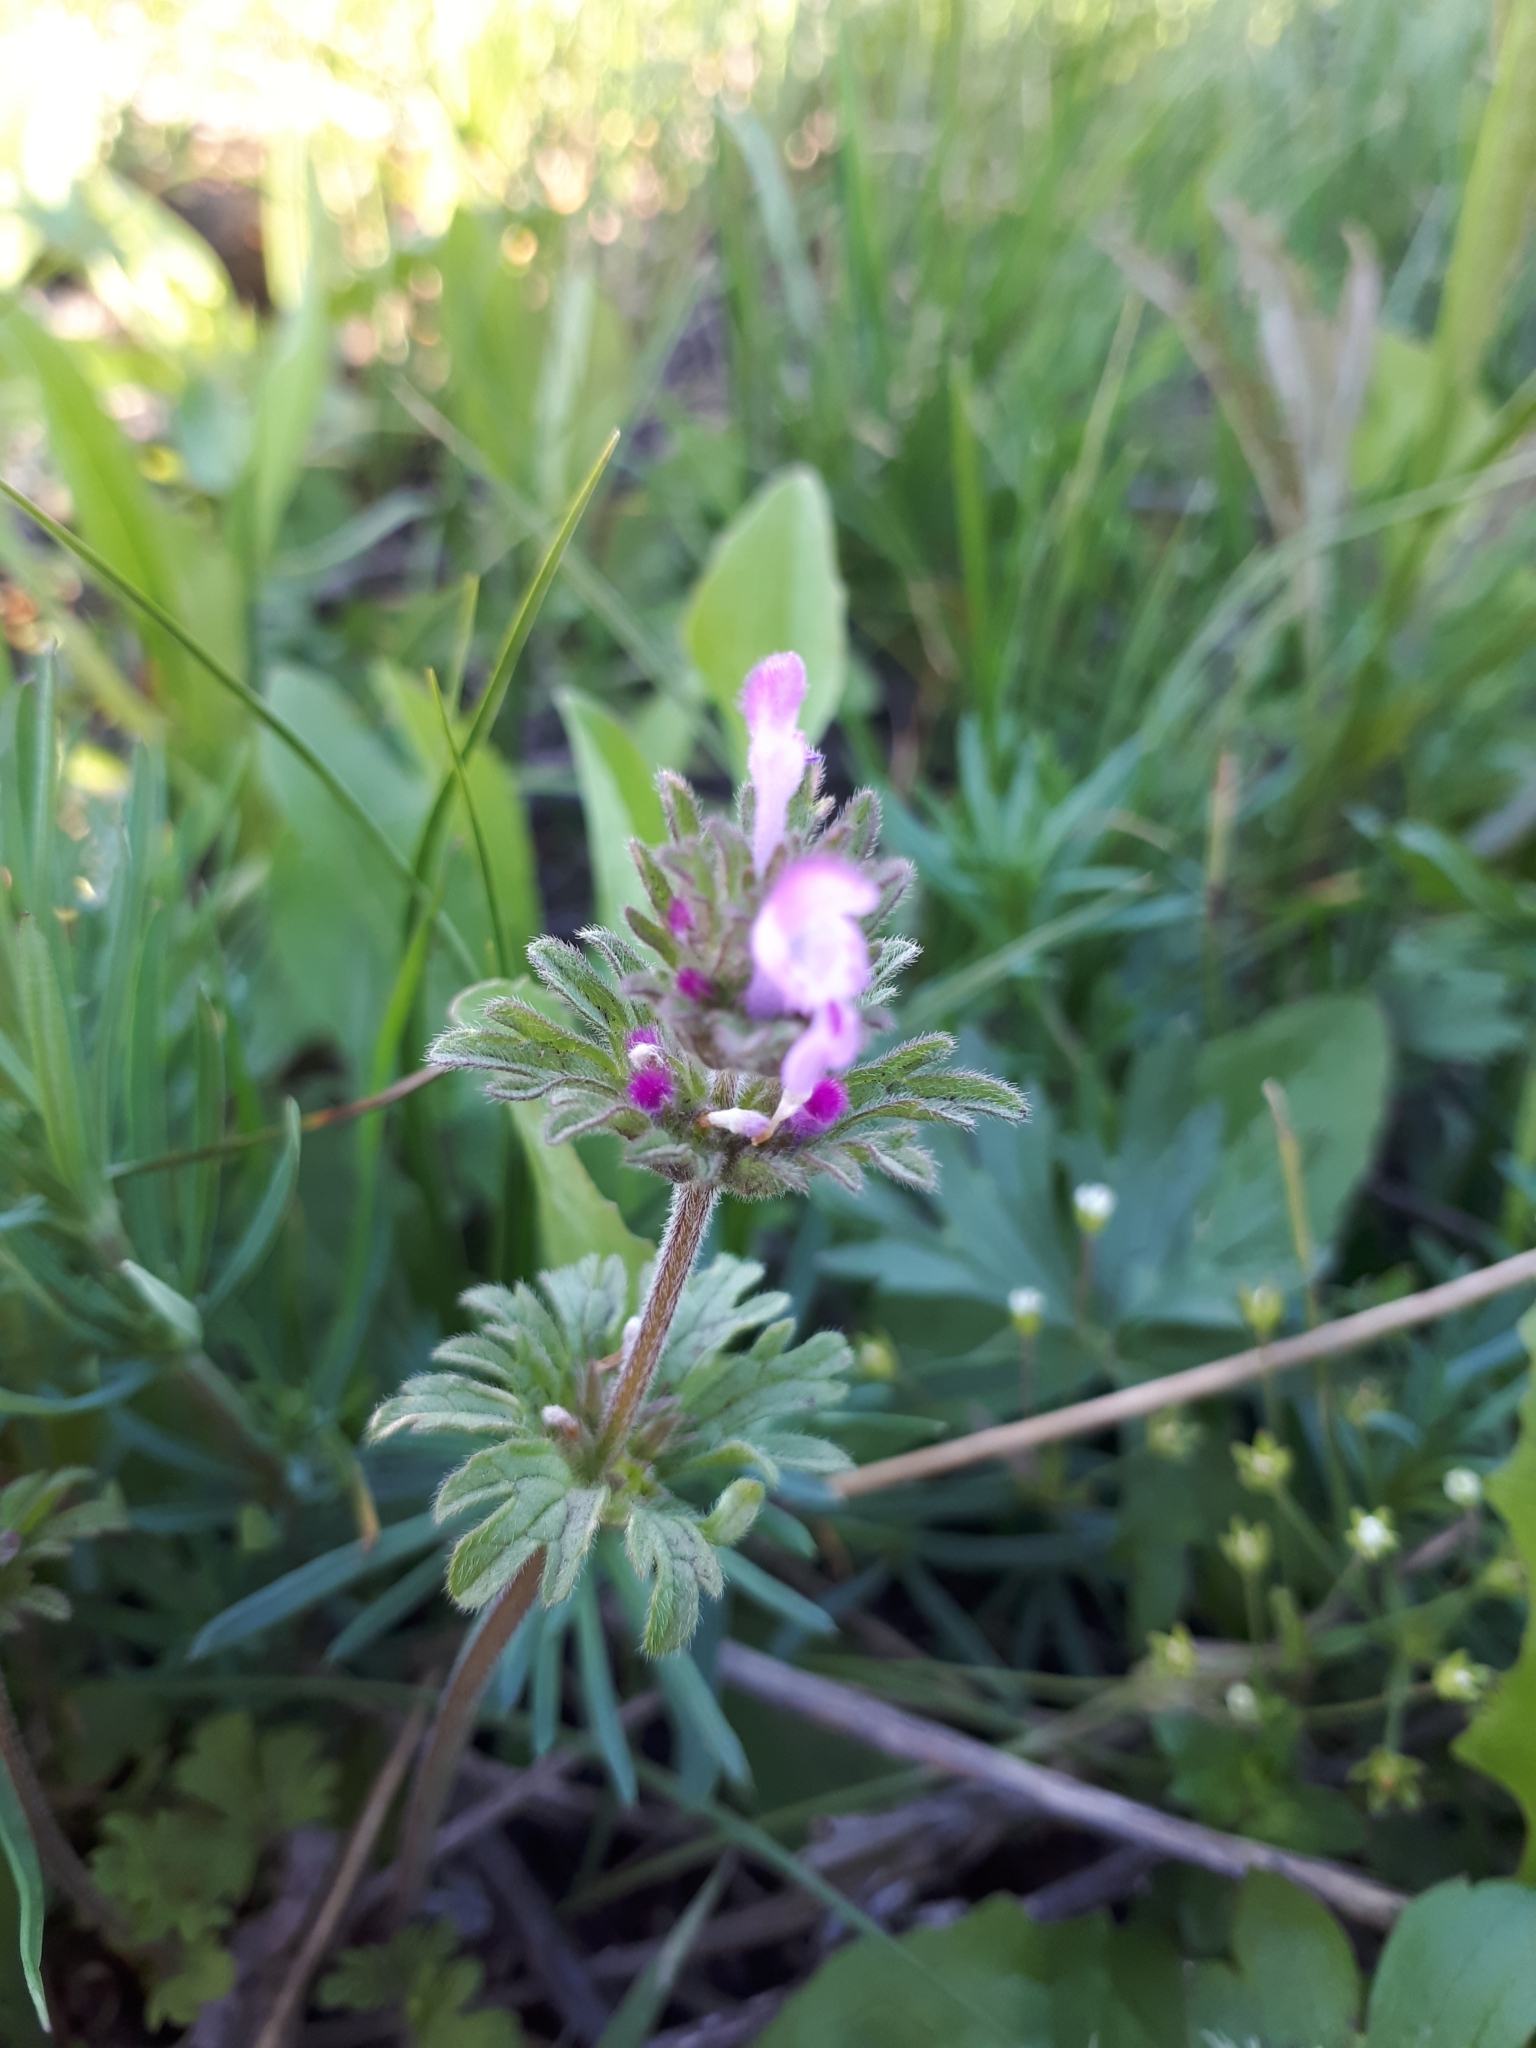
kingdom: Plantae
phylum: Tracheophyta
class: Magnoliopsida
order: Lamiales
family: Lamiaceae
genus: Lamium
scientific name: Lamium amplexicaule
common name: Henbit dead-nettle
